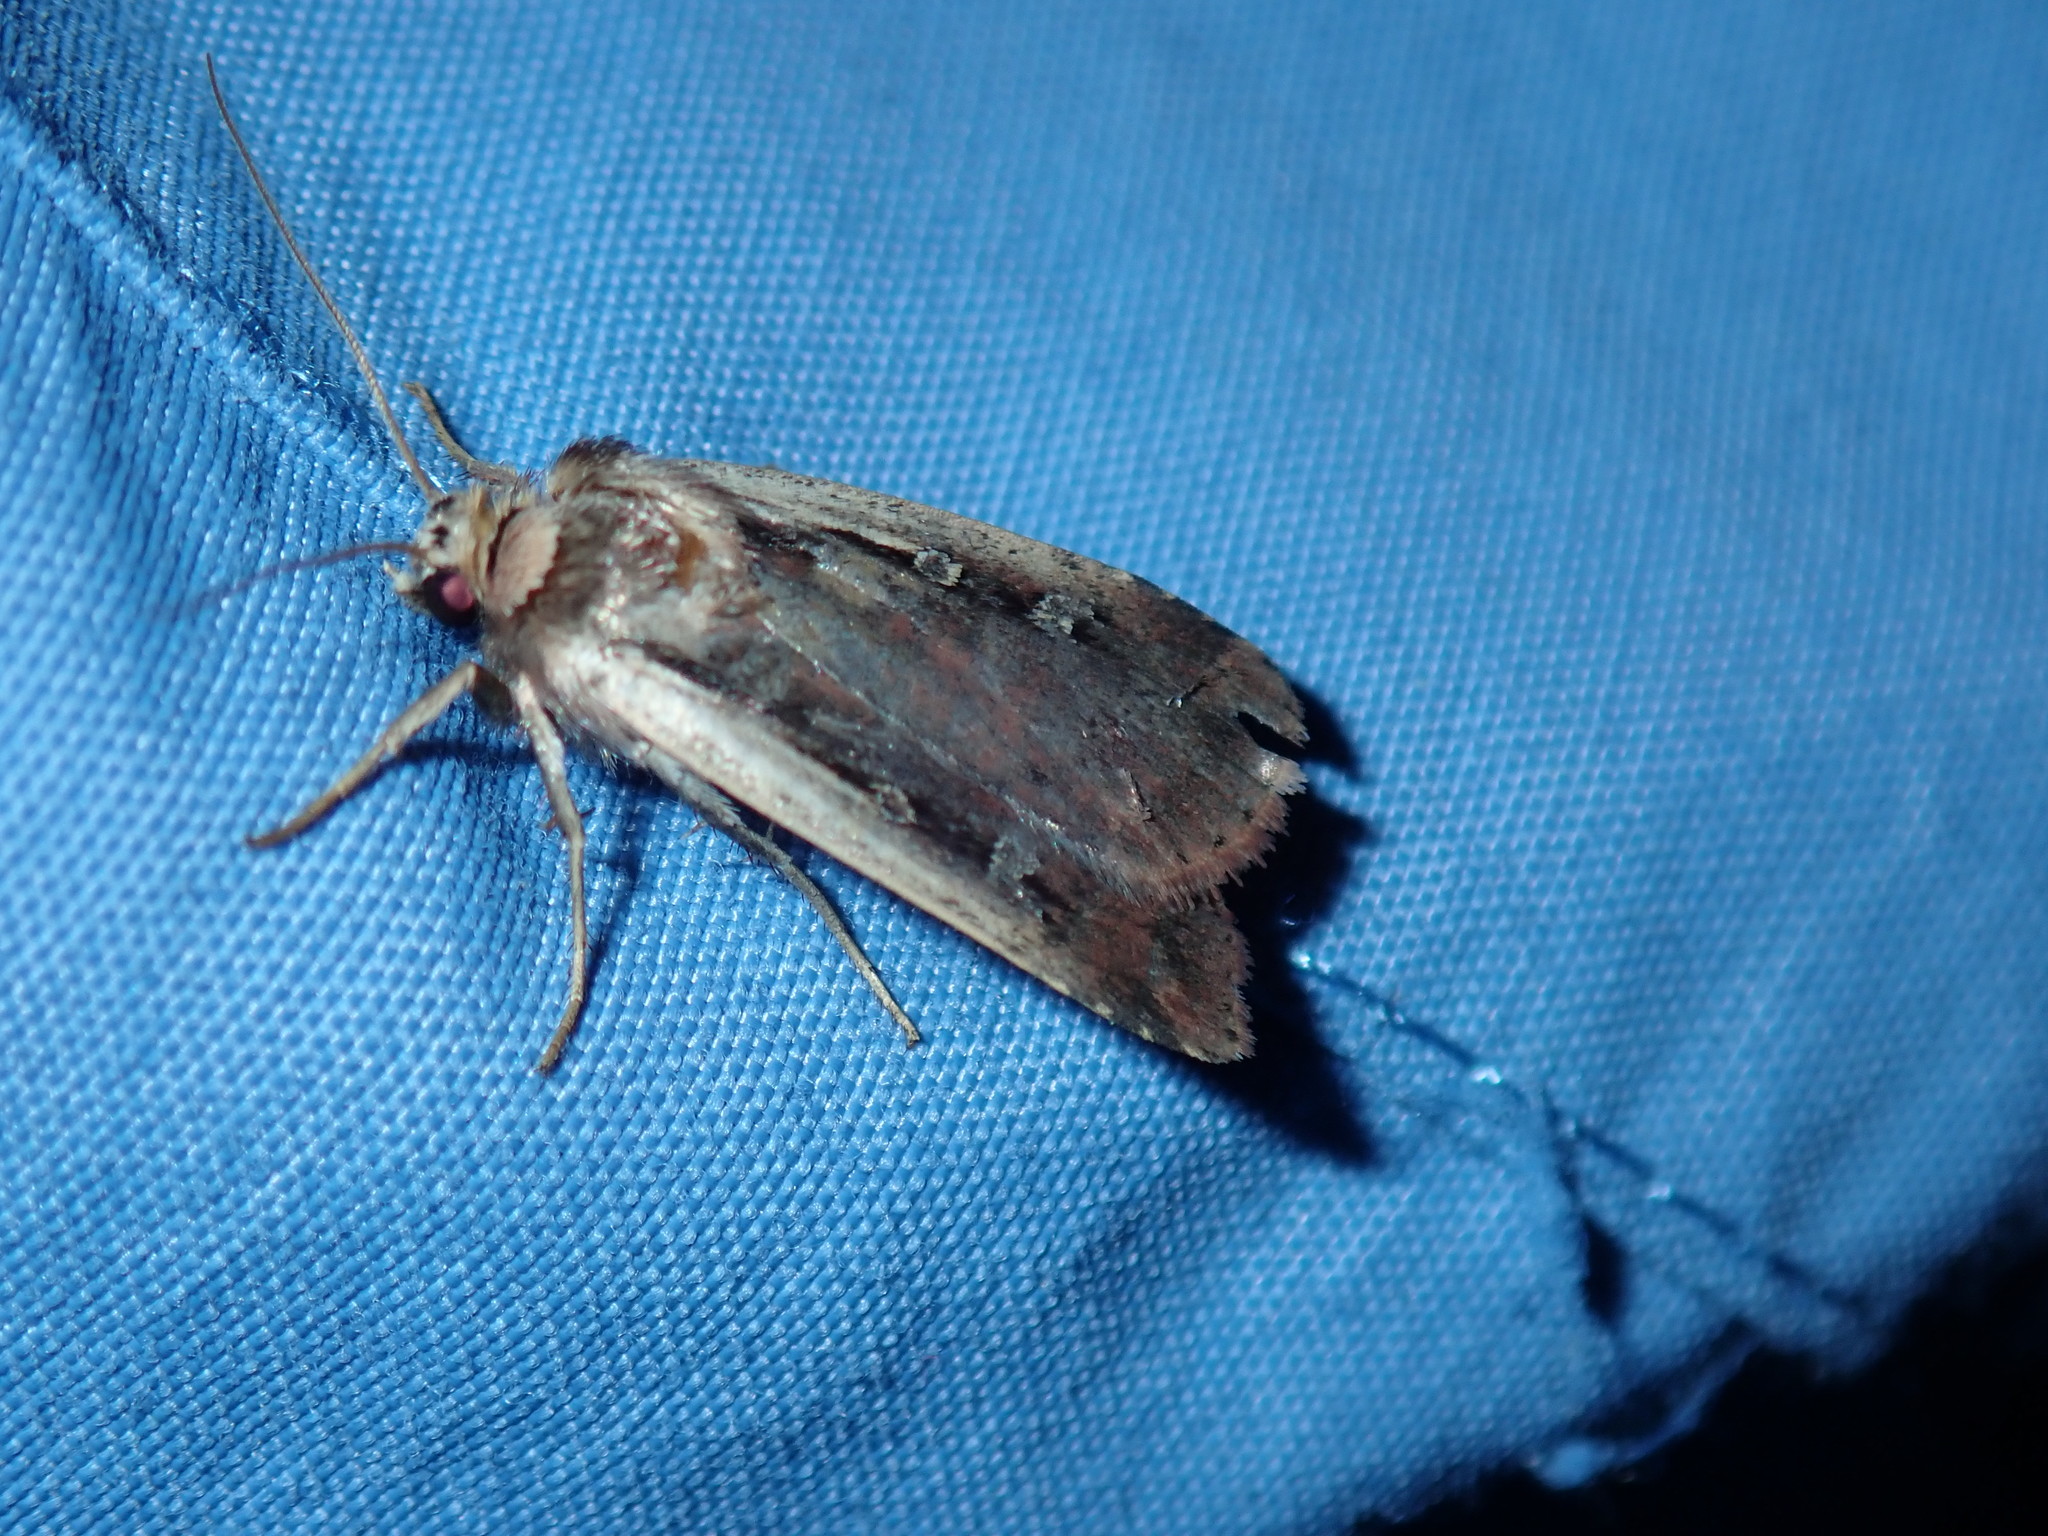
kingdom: Animalia
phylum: Arthropoda
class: Insecta
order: Lepidoptera
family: Noctuidae
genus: Ochropleura
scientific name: Ochropleura implecta
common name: Flame-shouldered dart
